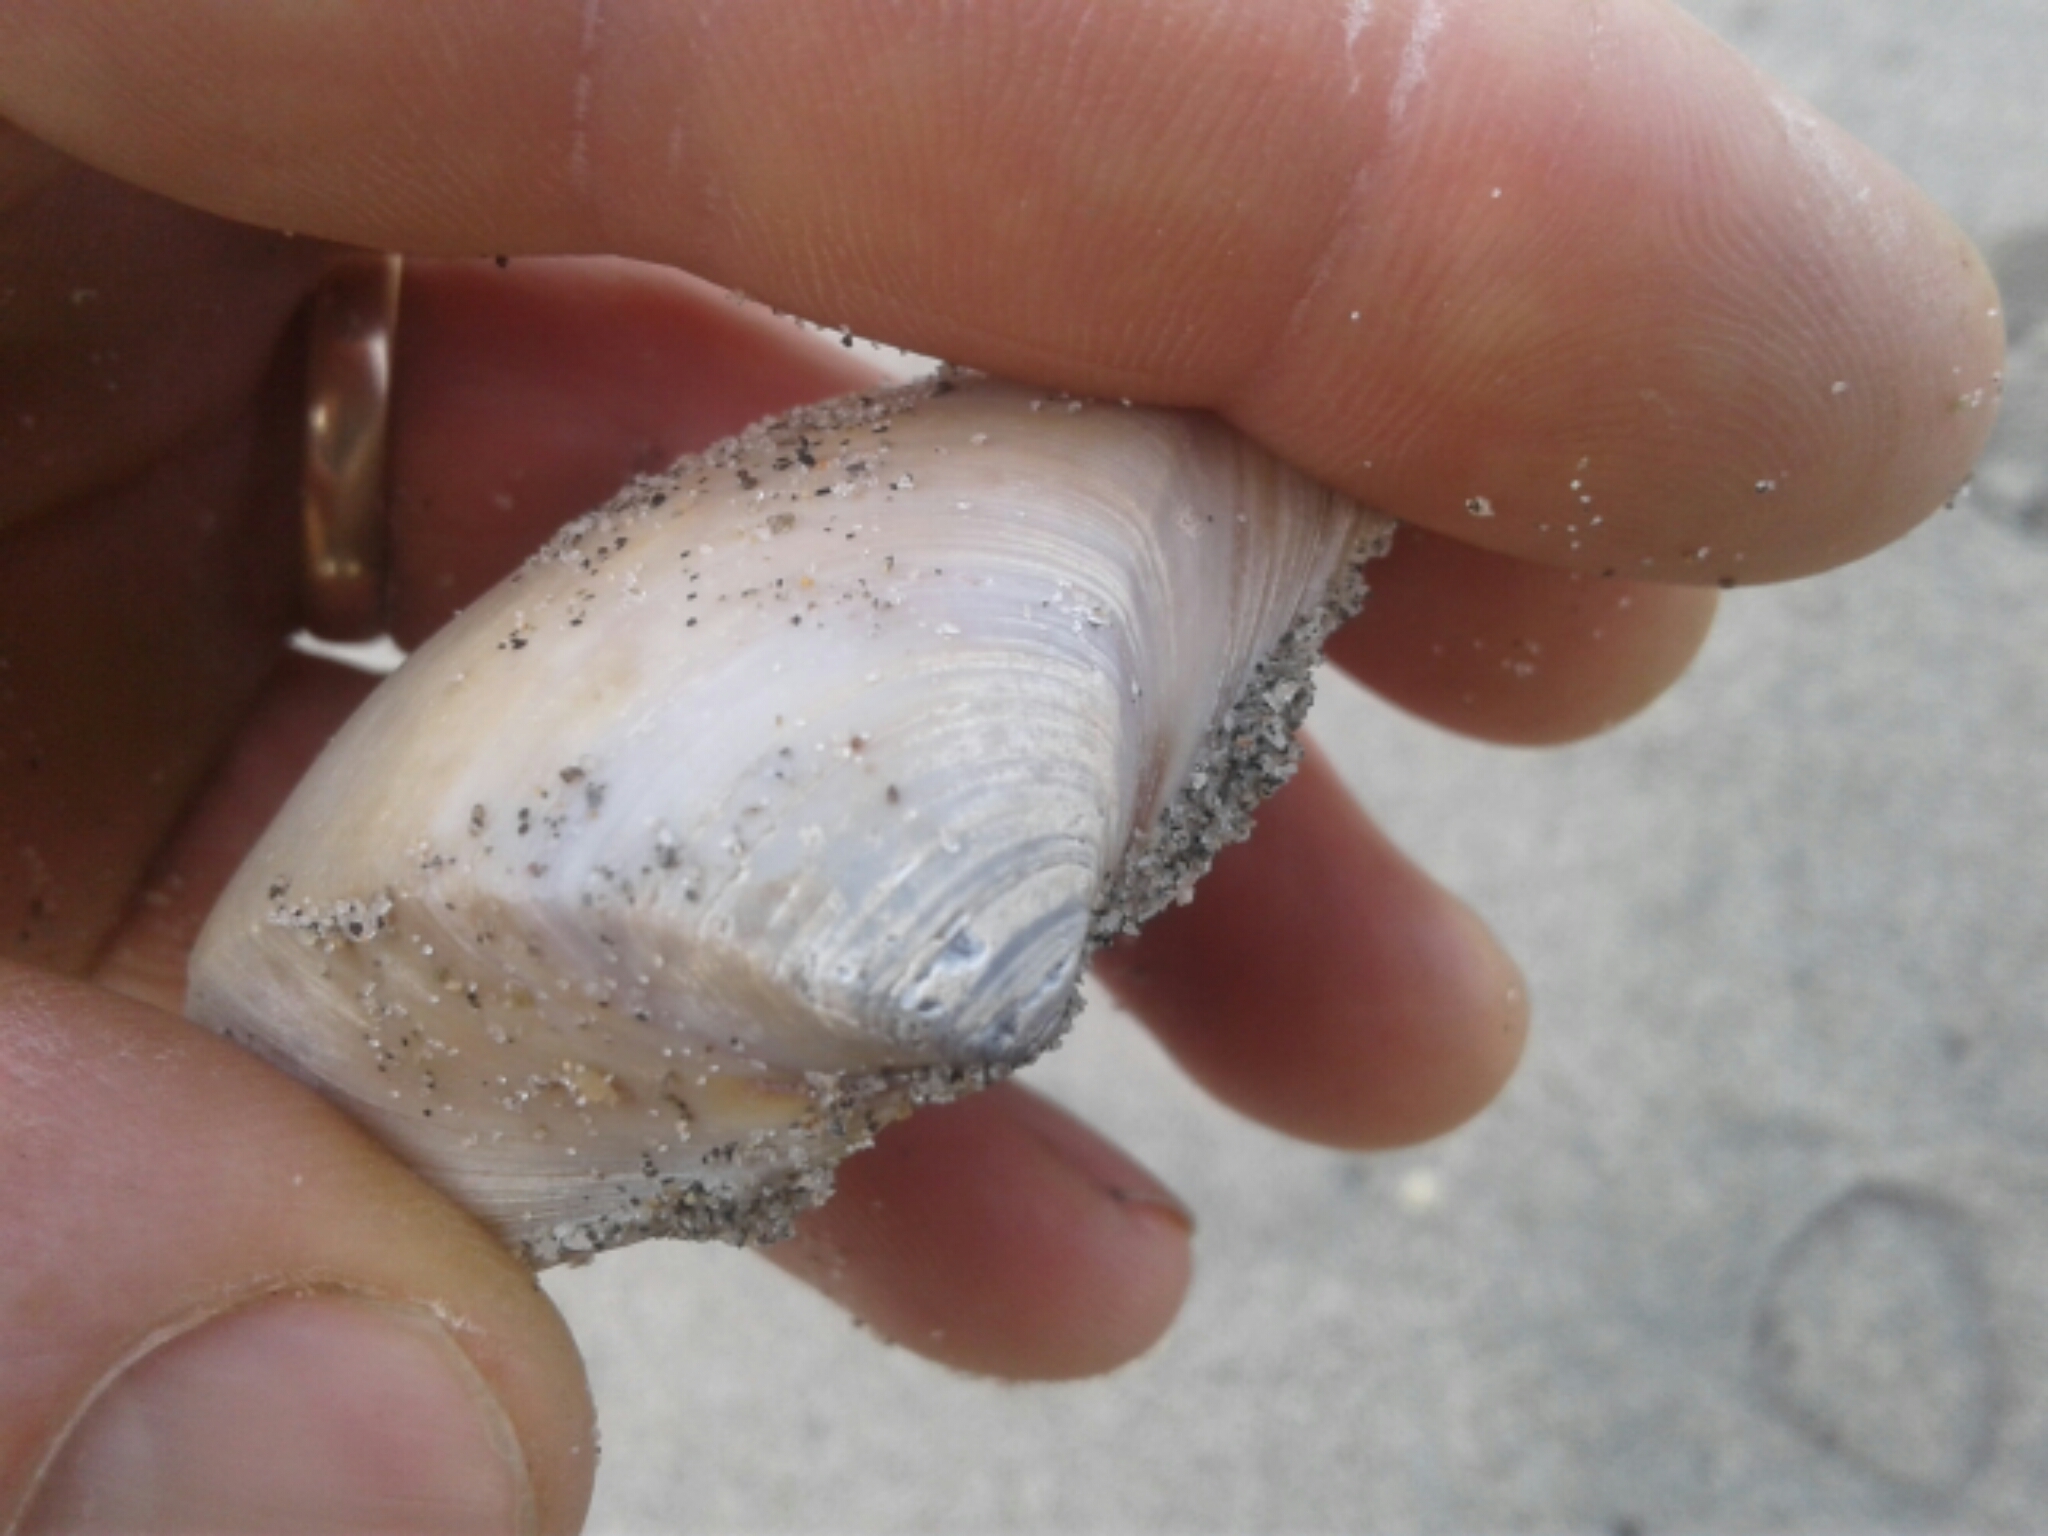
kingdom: Animalia
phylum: Mollusca
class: Bivalvia
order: Venerida
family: Mactridae
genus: Crassula
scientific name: Crassula aequilatera
